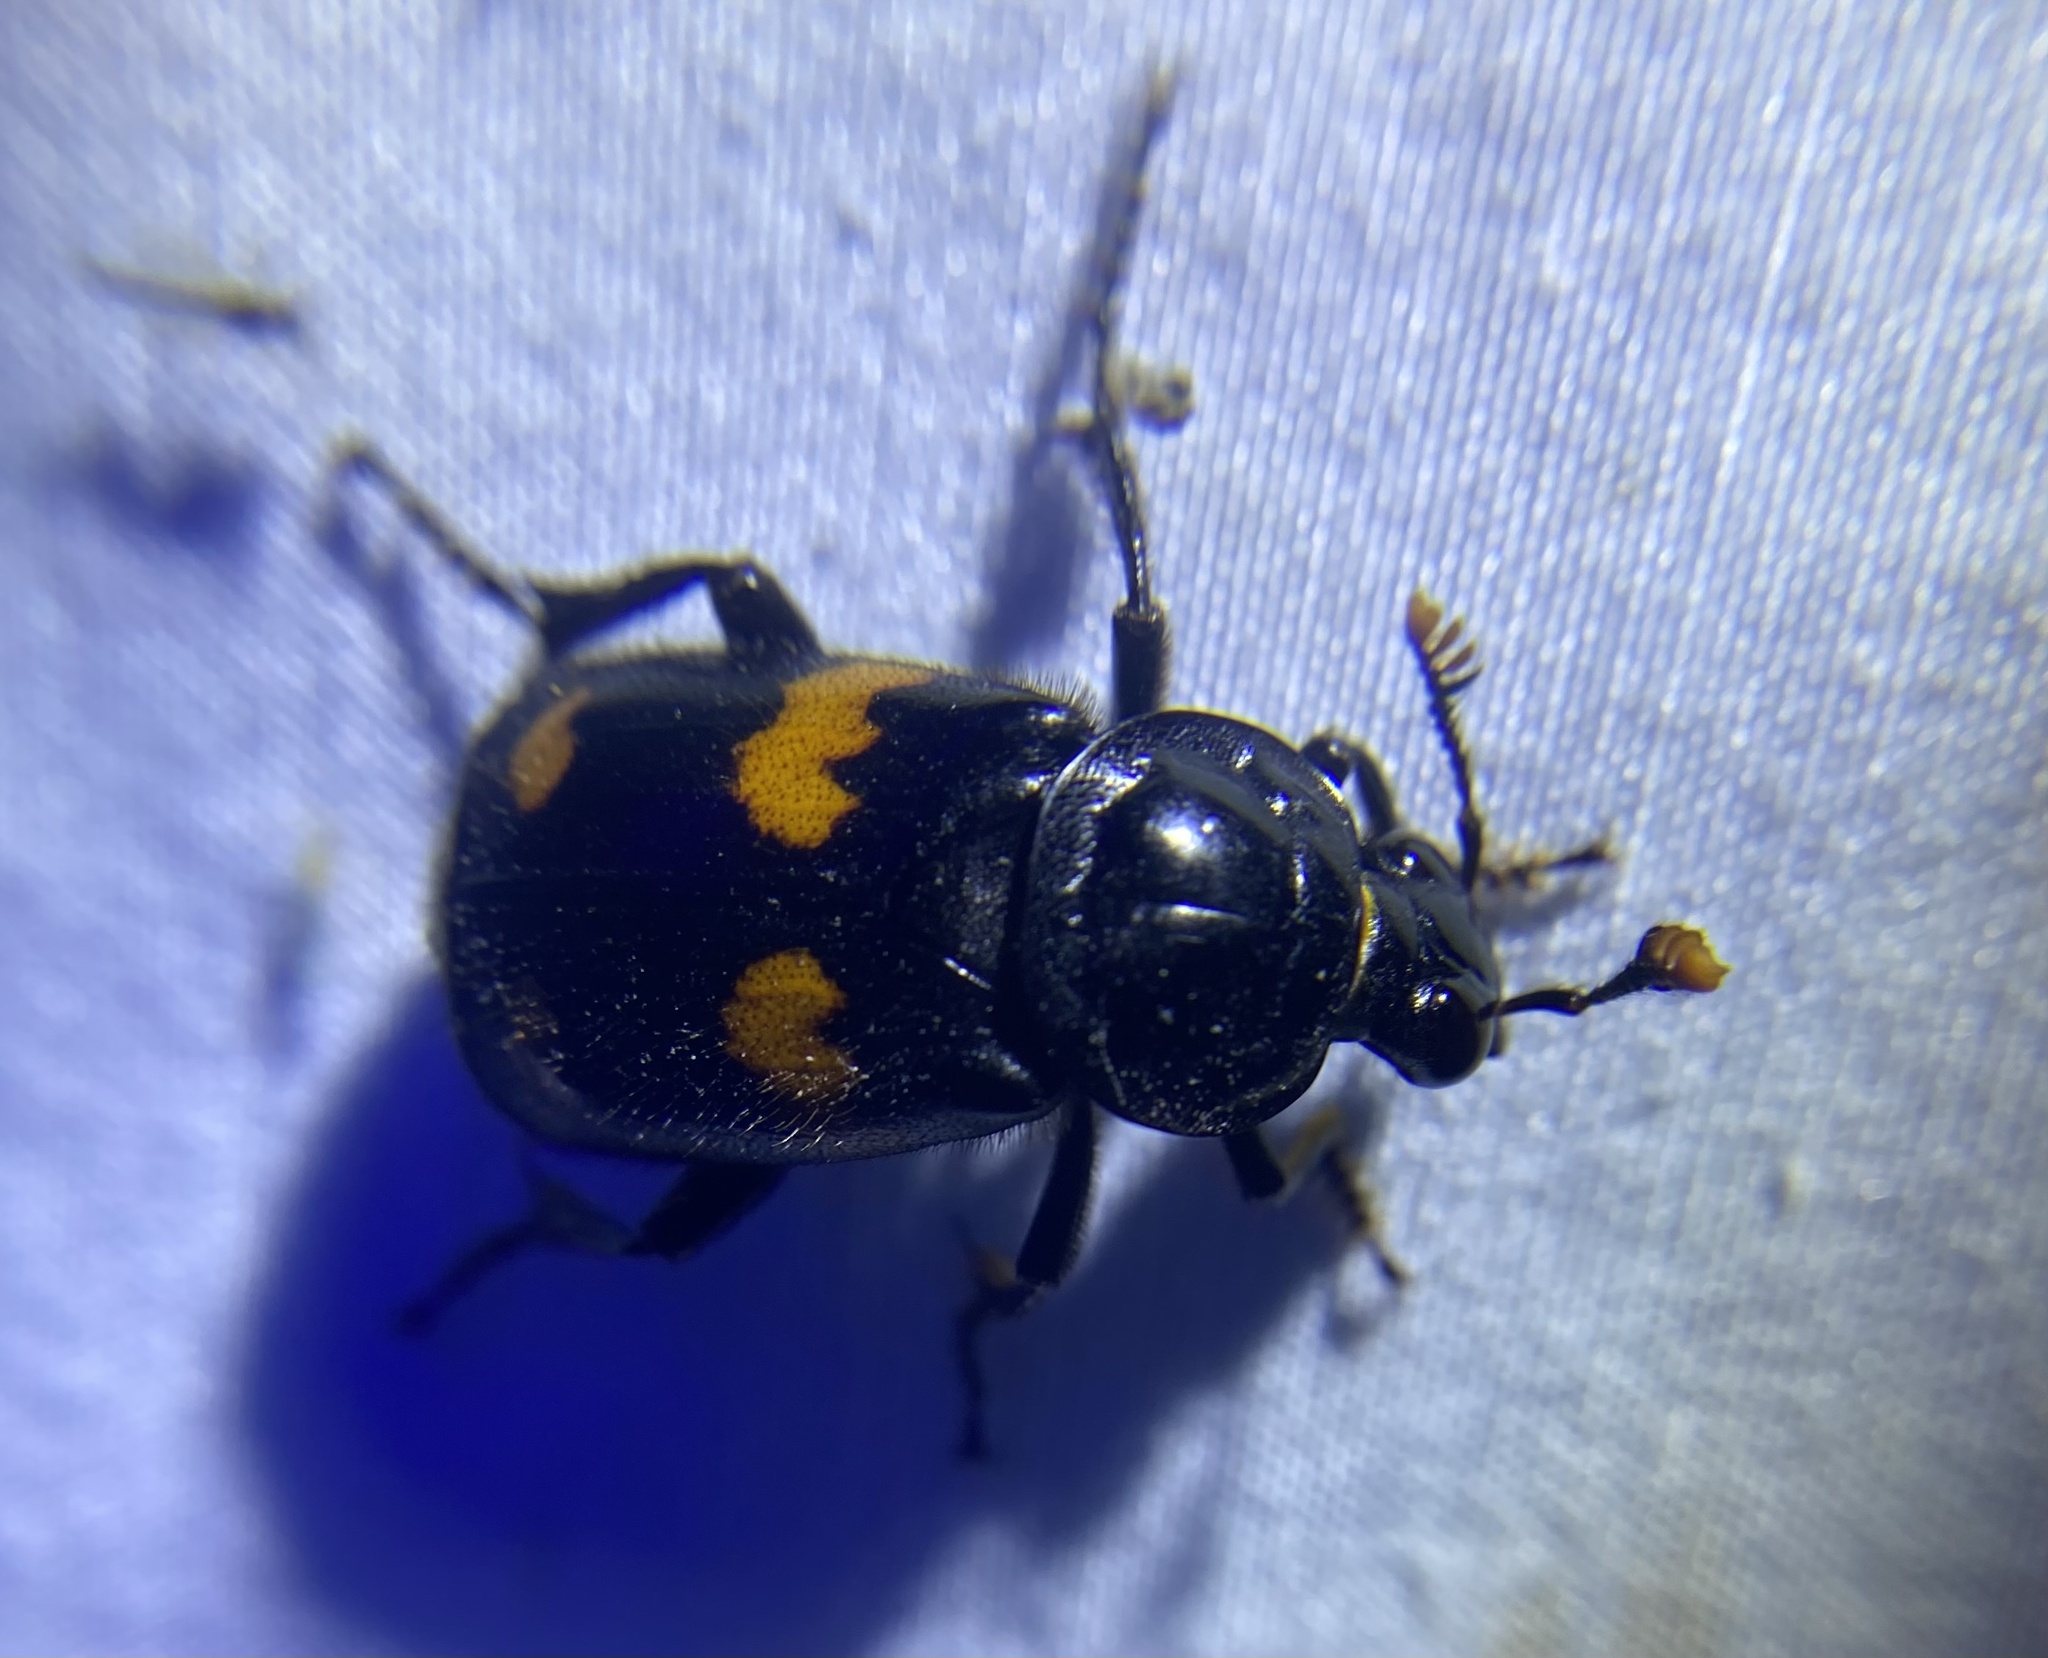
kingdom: Animalia
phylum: Arthropoda
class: Insecta
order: Coleoptera
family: Staphylinidae
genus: Nicrophorus
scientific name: Nicrophorus orbicollis
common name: Roundneck sexton beetle
